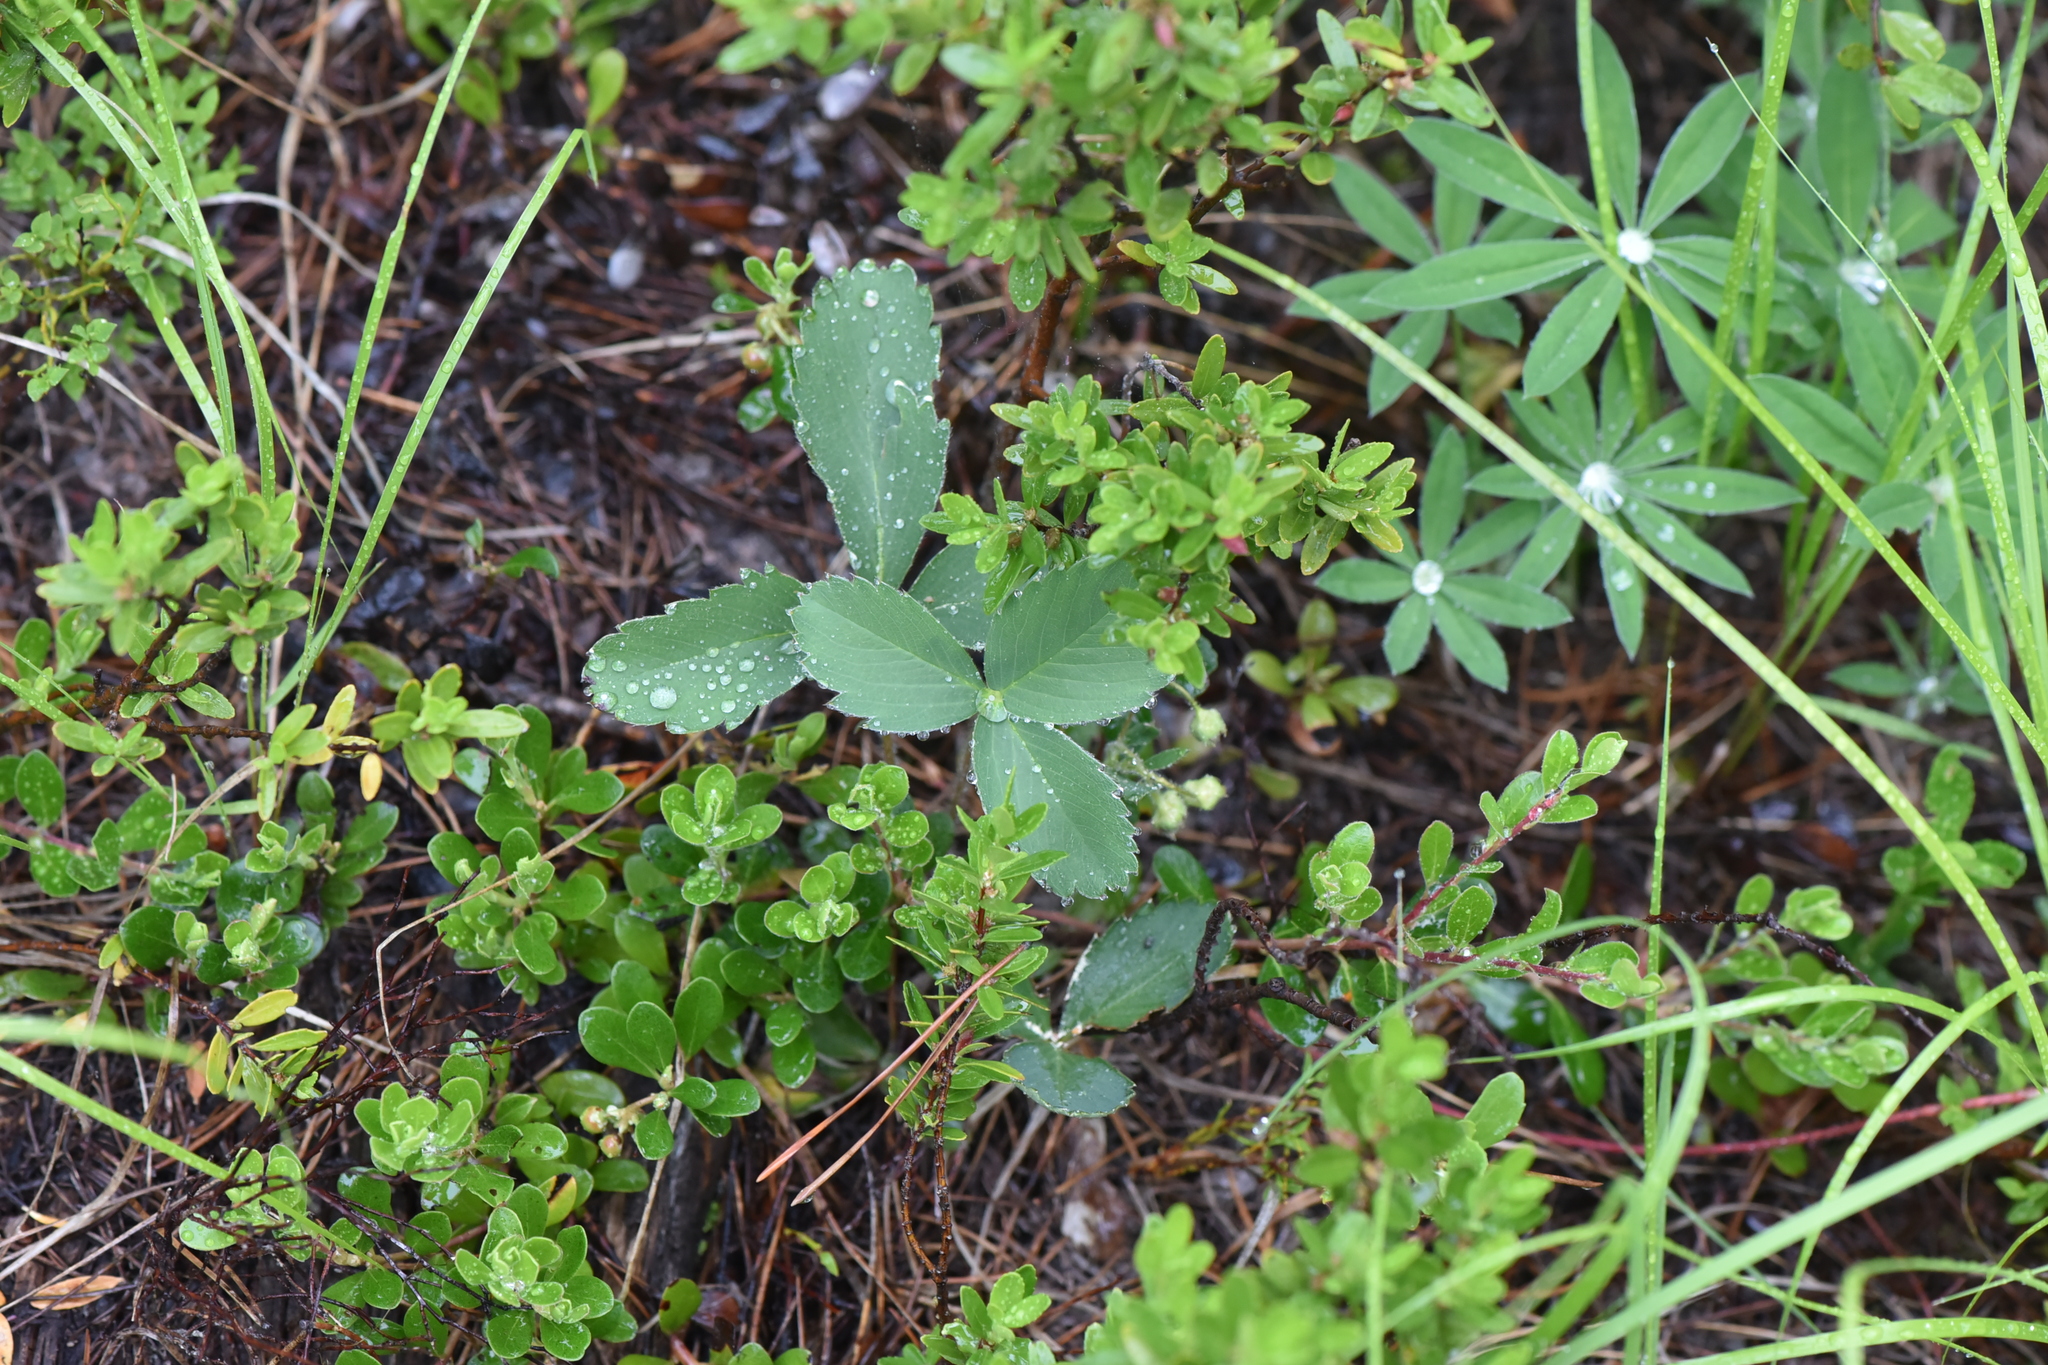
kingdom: Plantae
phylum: Tracheophyta
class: Magnoliopsida
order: Rosales
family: Rosaceae
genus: Fragaria
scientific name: Fragaria virginiana
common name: Thickleaved wild strawberry
